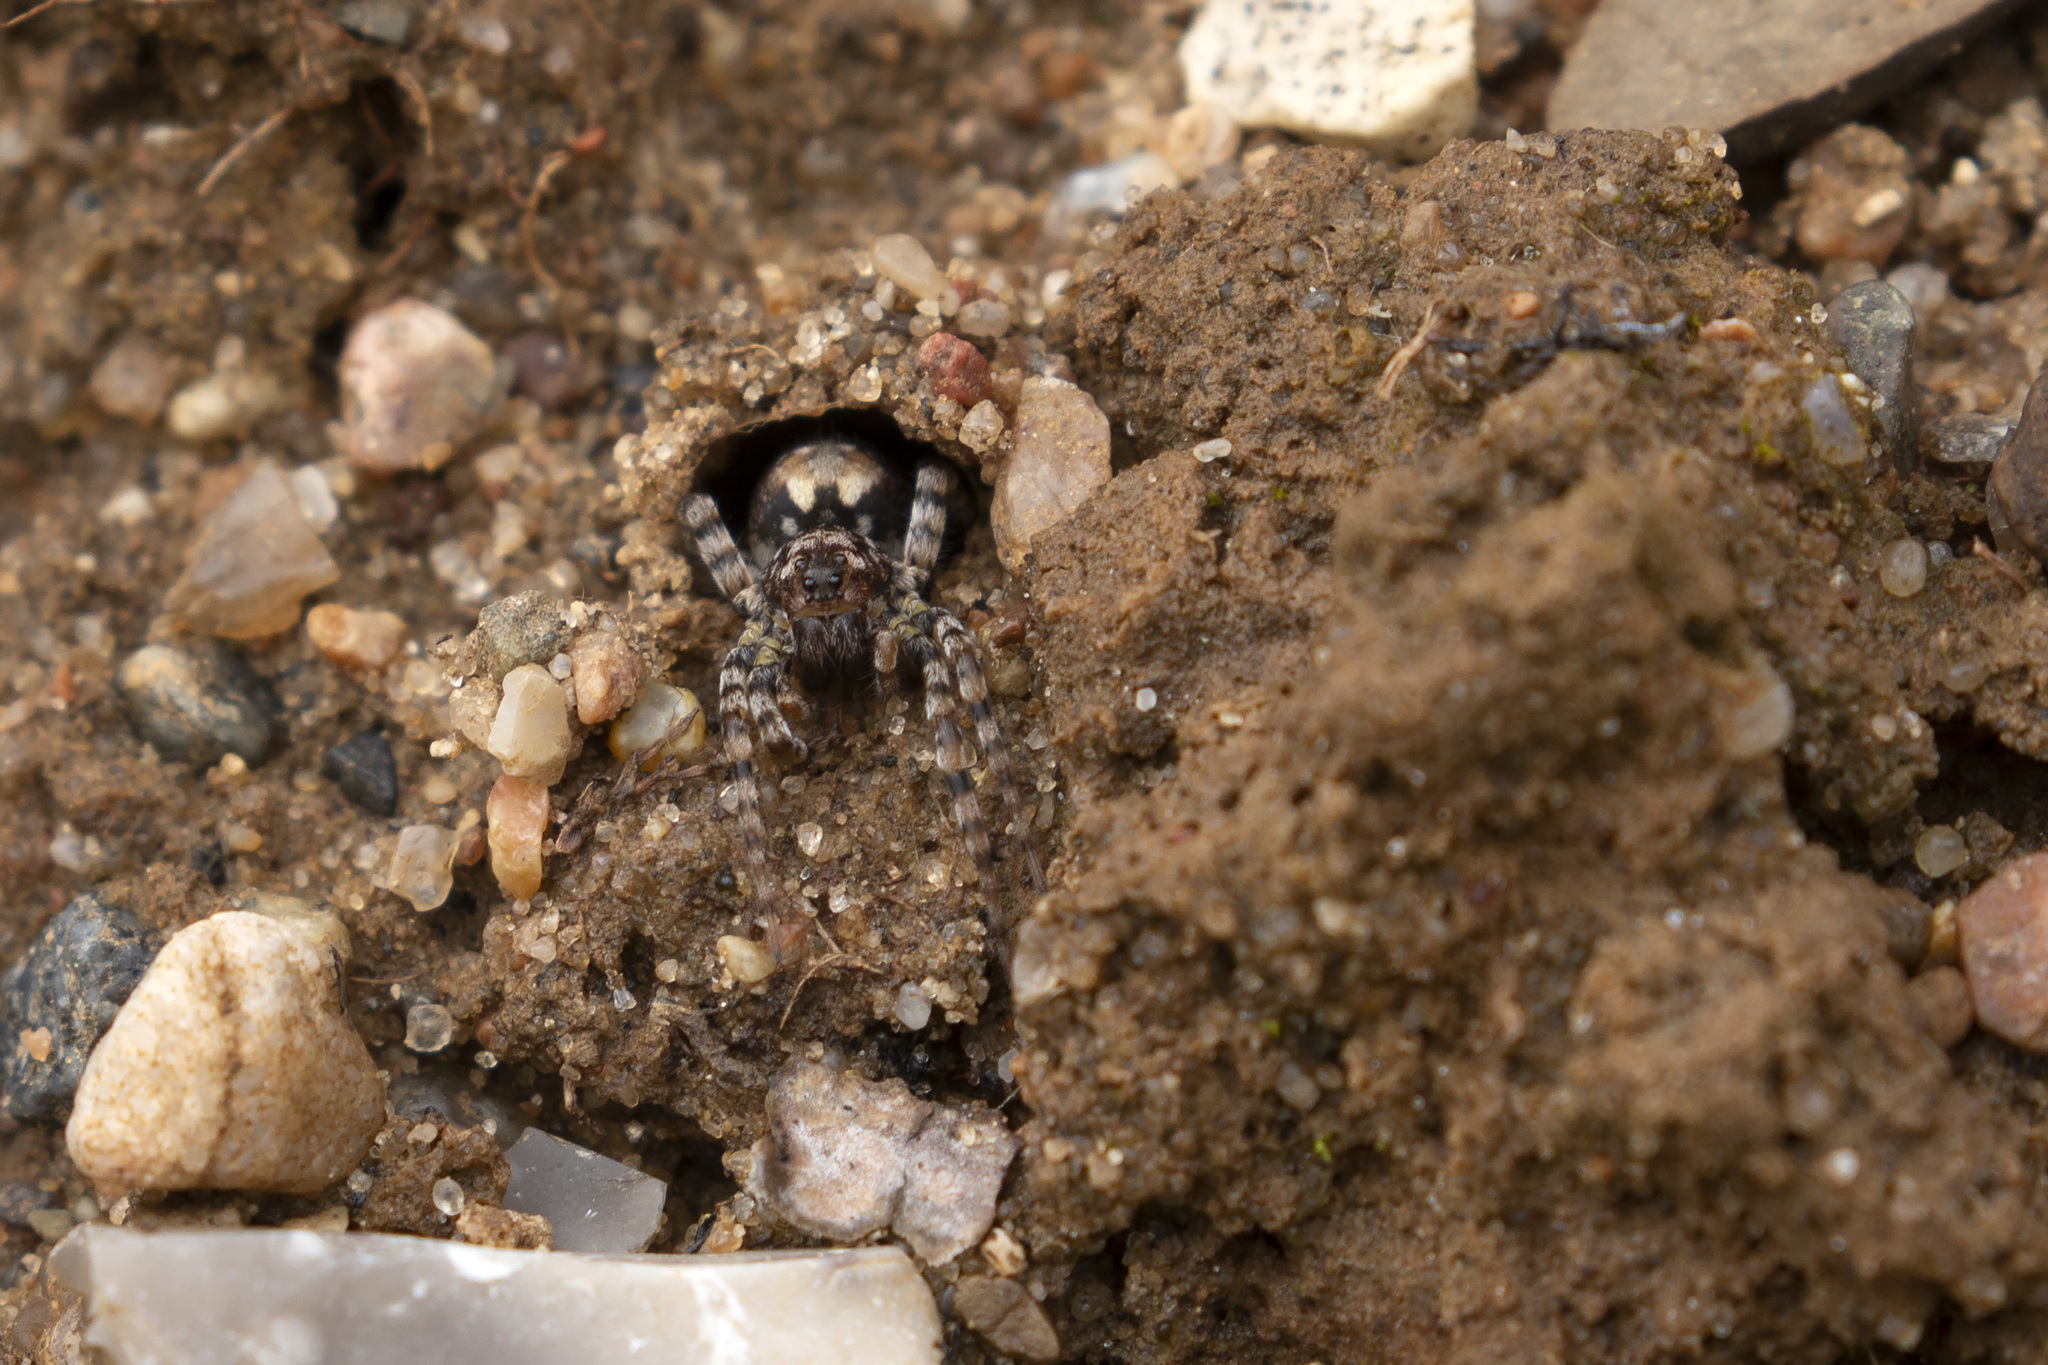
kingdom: Animalia
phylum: Arthropoda
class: Arachnida
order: Araneae
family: Lycosidae
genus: Arctosa
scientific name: Arctosa perita
